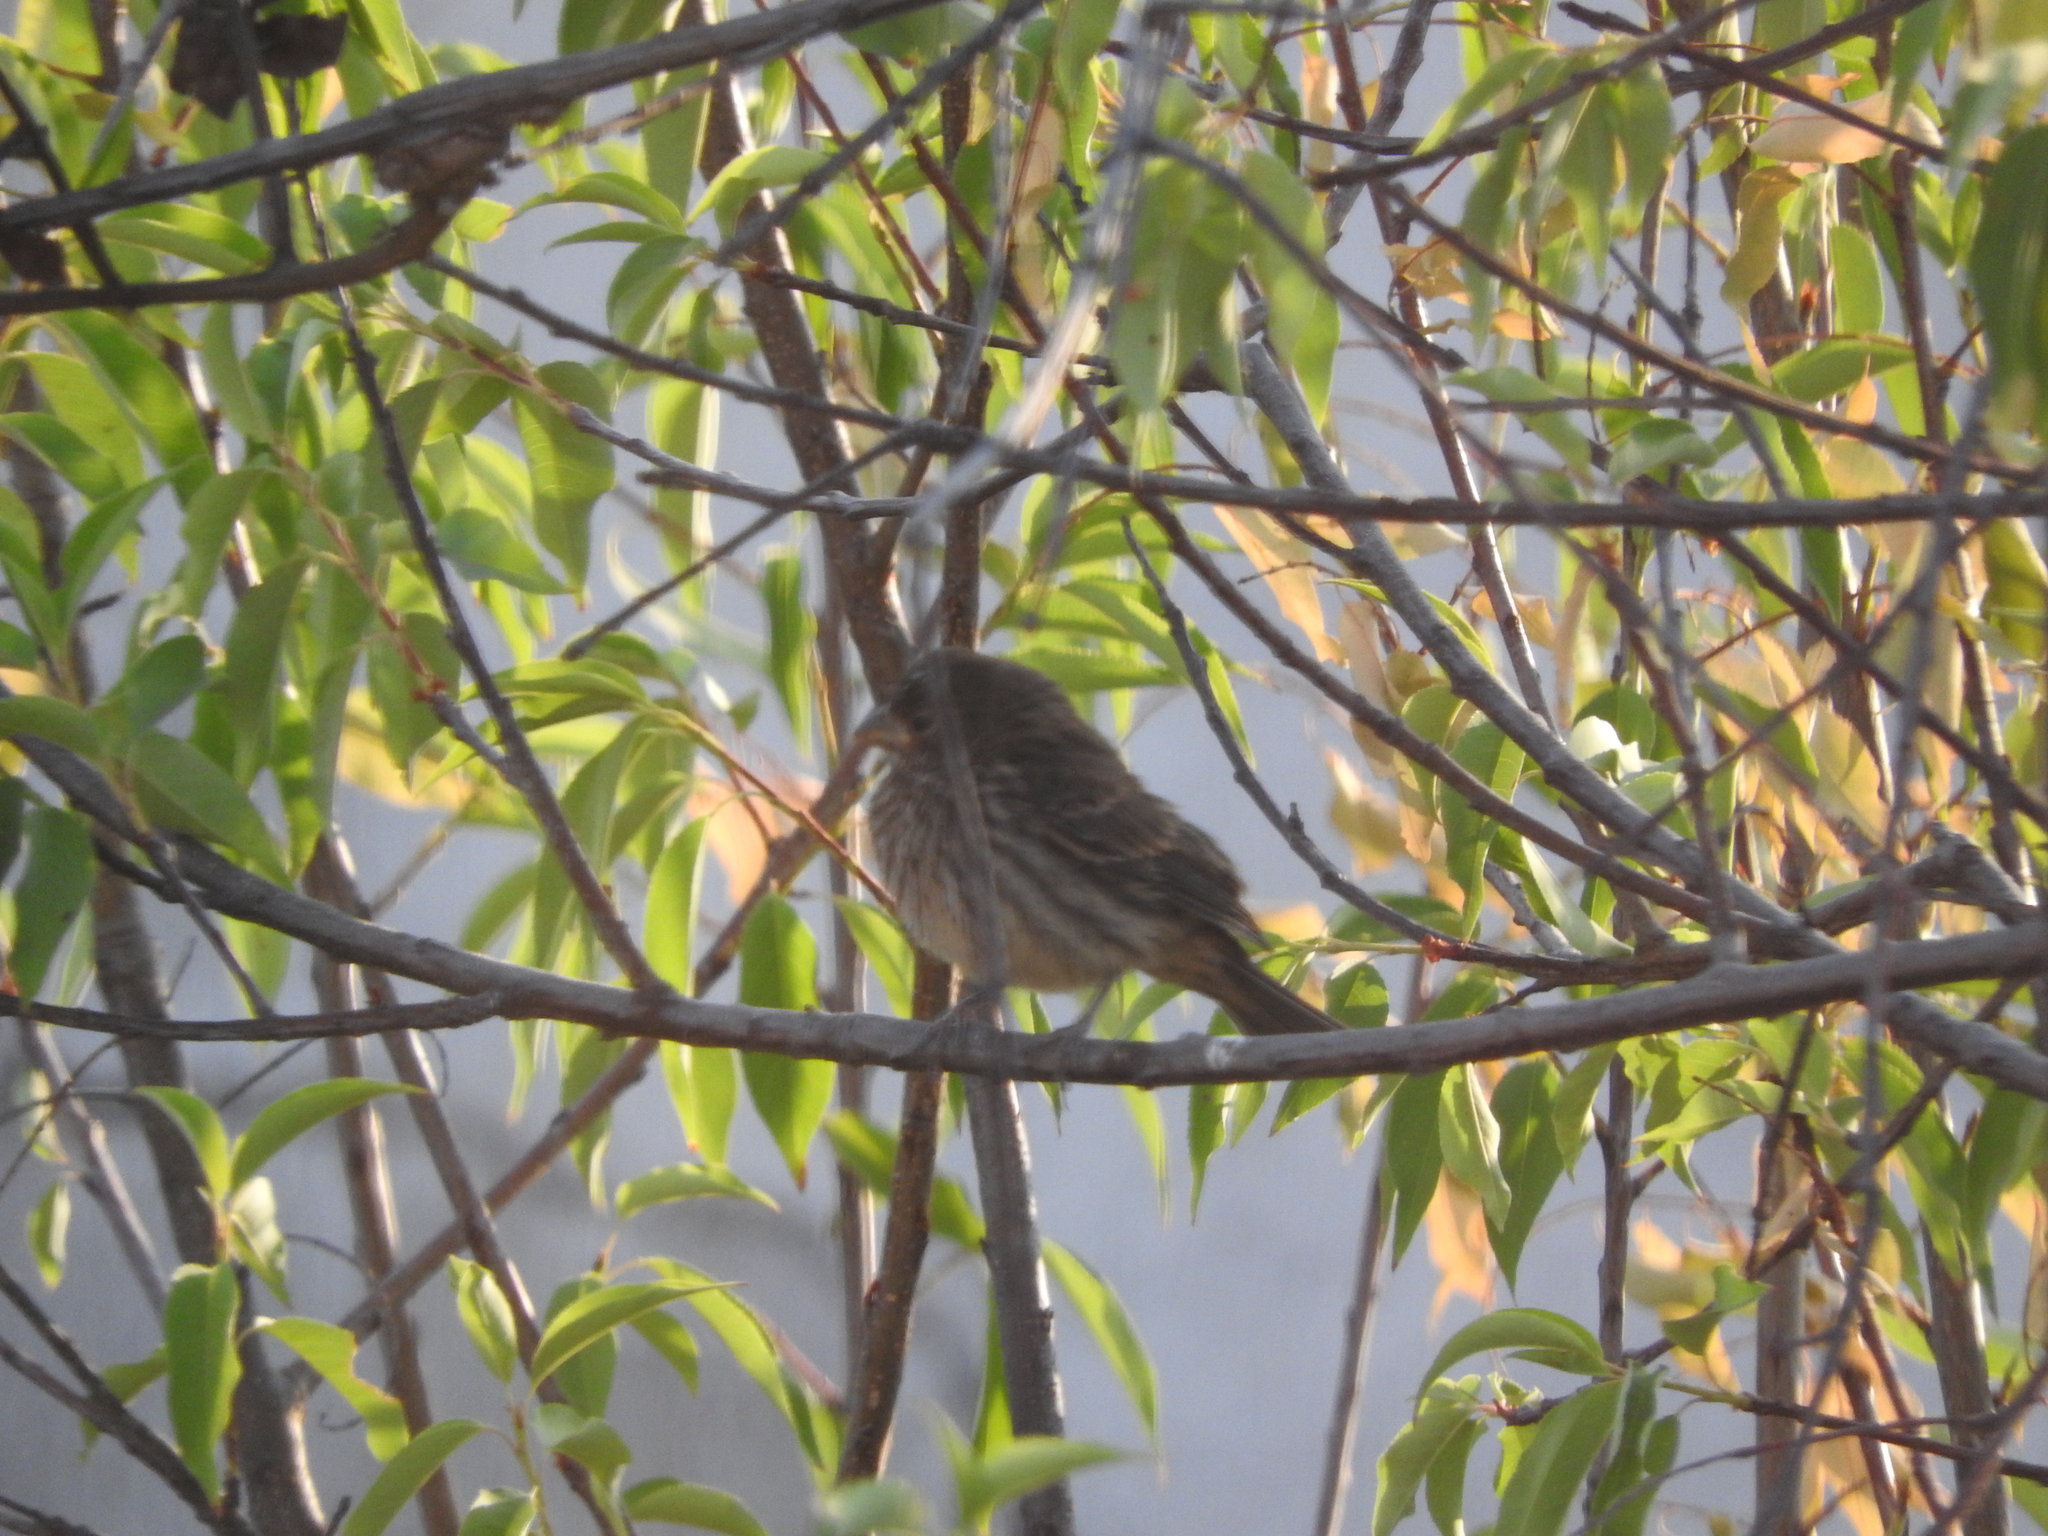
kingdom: Animalia
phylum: Chordata
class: Aves
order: Passeriformes
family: Fringillidae
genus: Haemorhous
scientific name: Haemorhous mexicanus
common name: House finch
